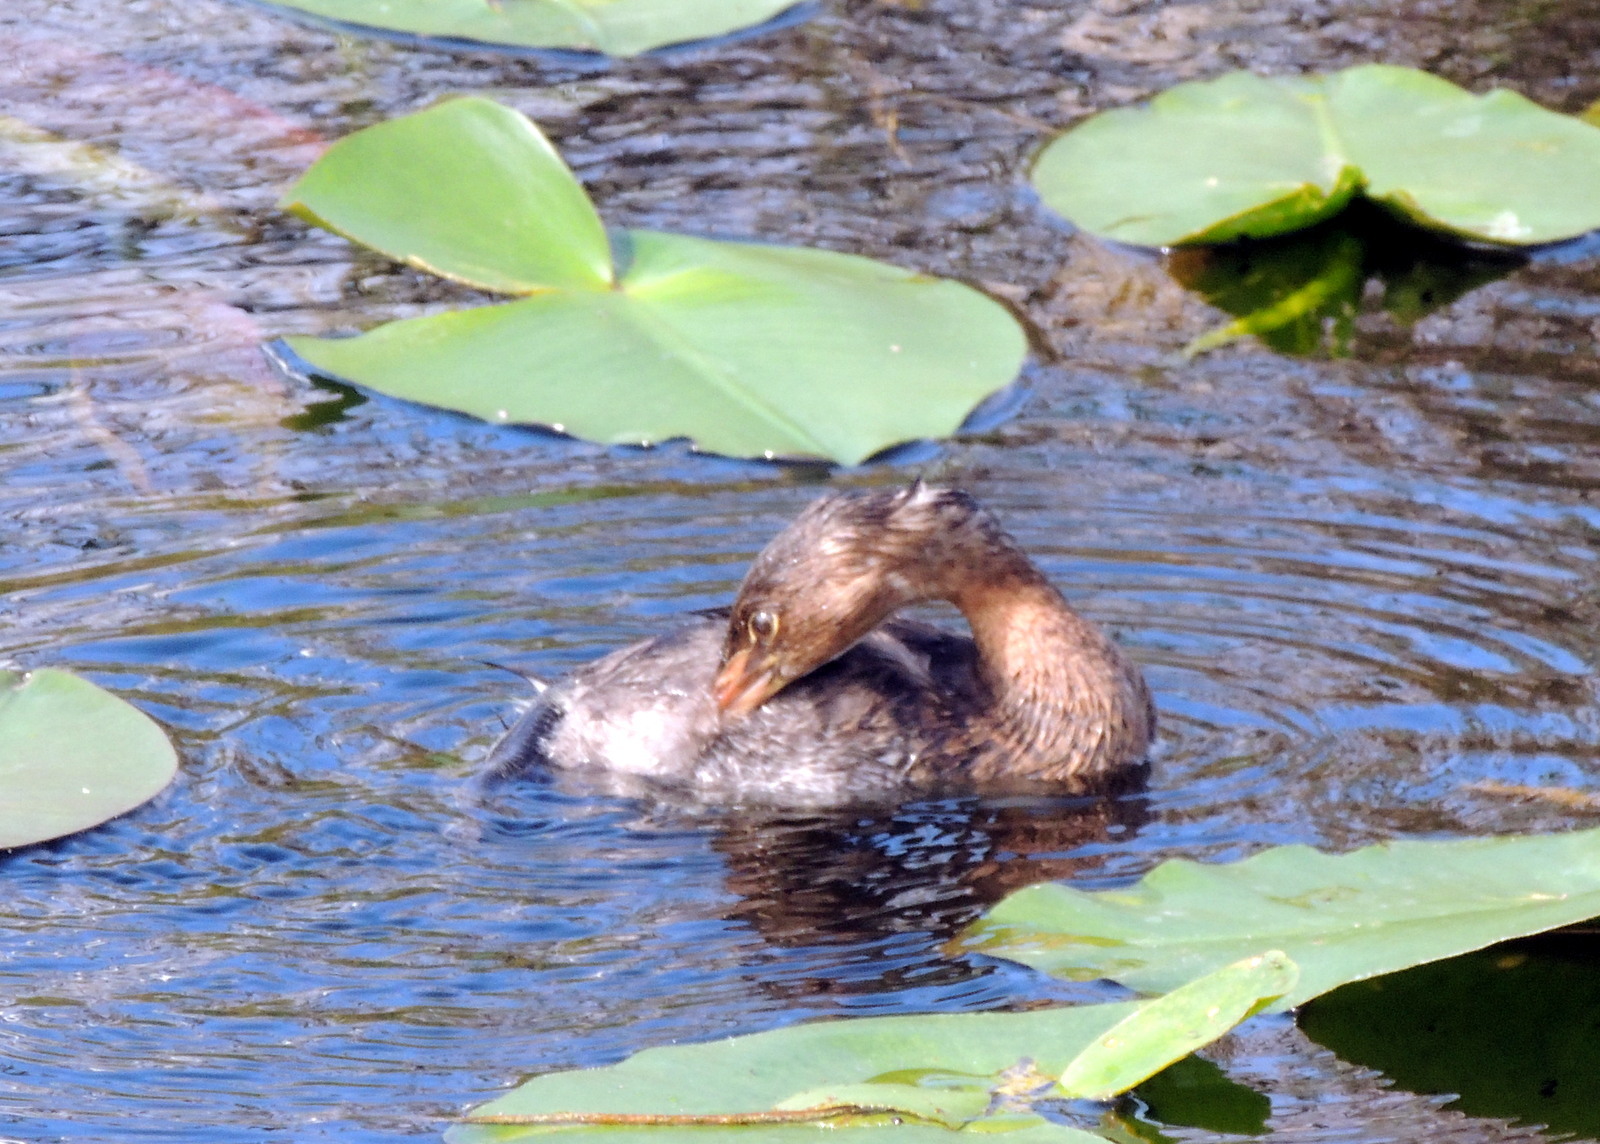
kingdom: Animalia
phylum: Chordata
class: Aves
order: Podicipediformes
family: Podicipedidae
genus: Podilymbus
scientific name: Podilymbus podiceps
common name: Pied-billed grebe
